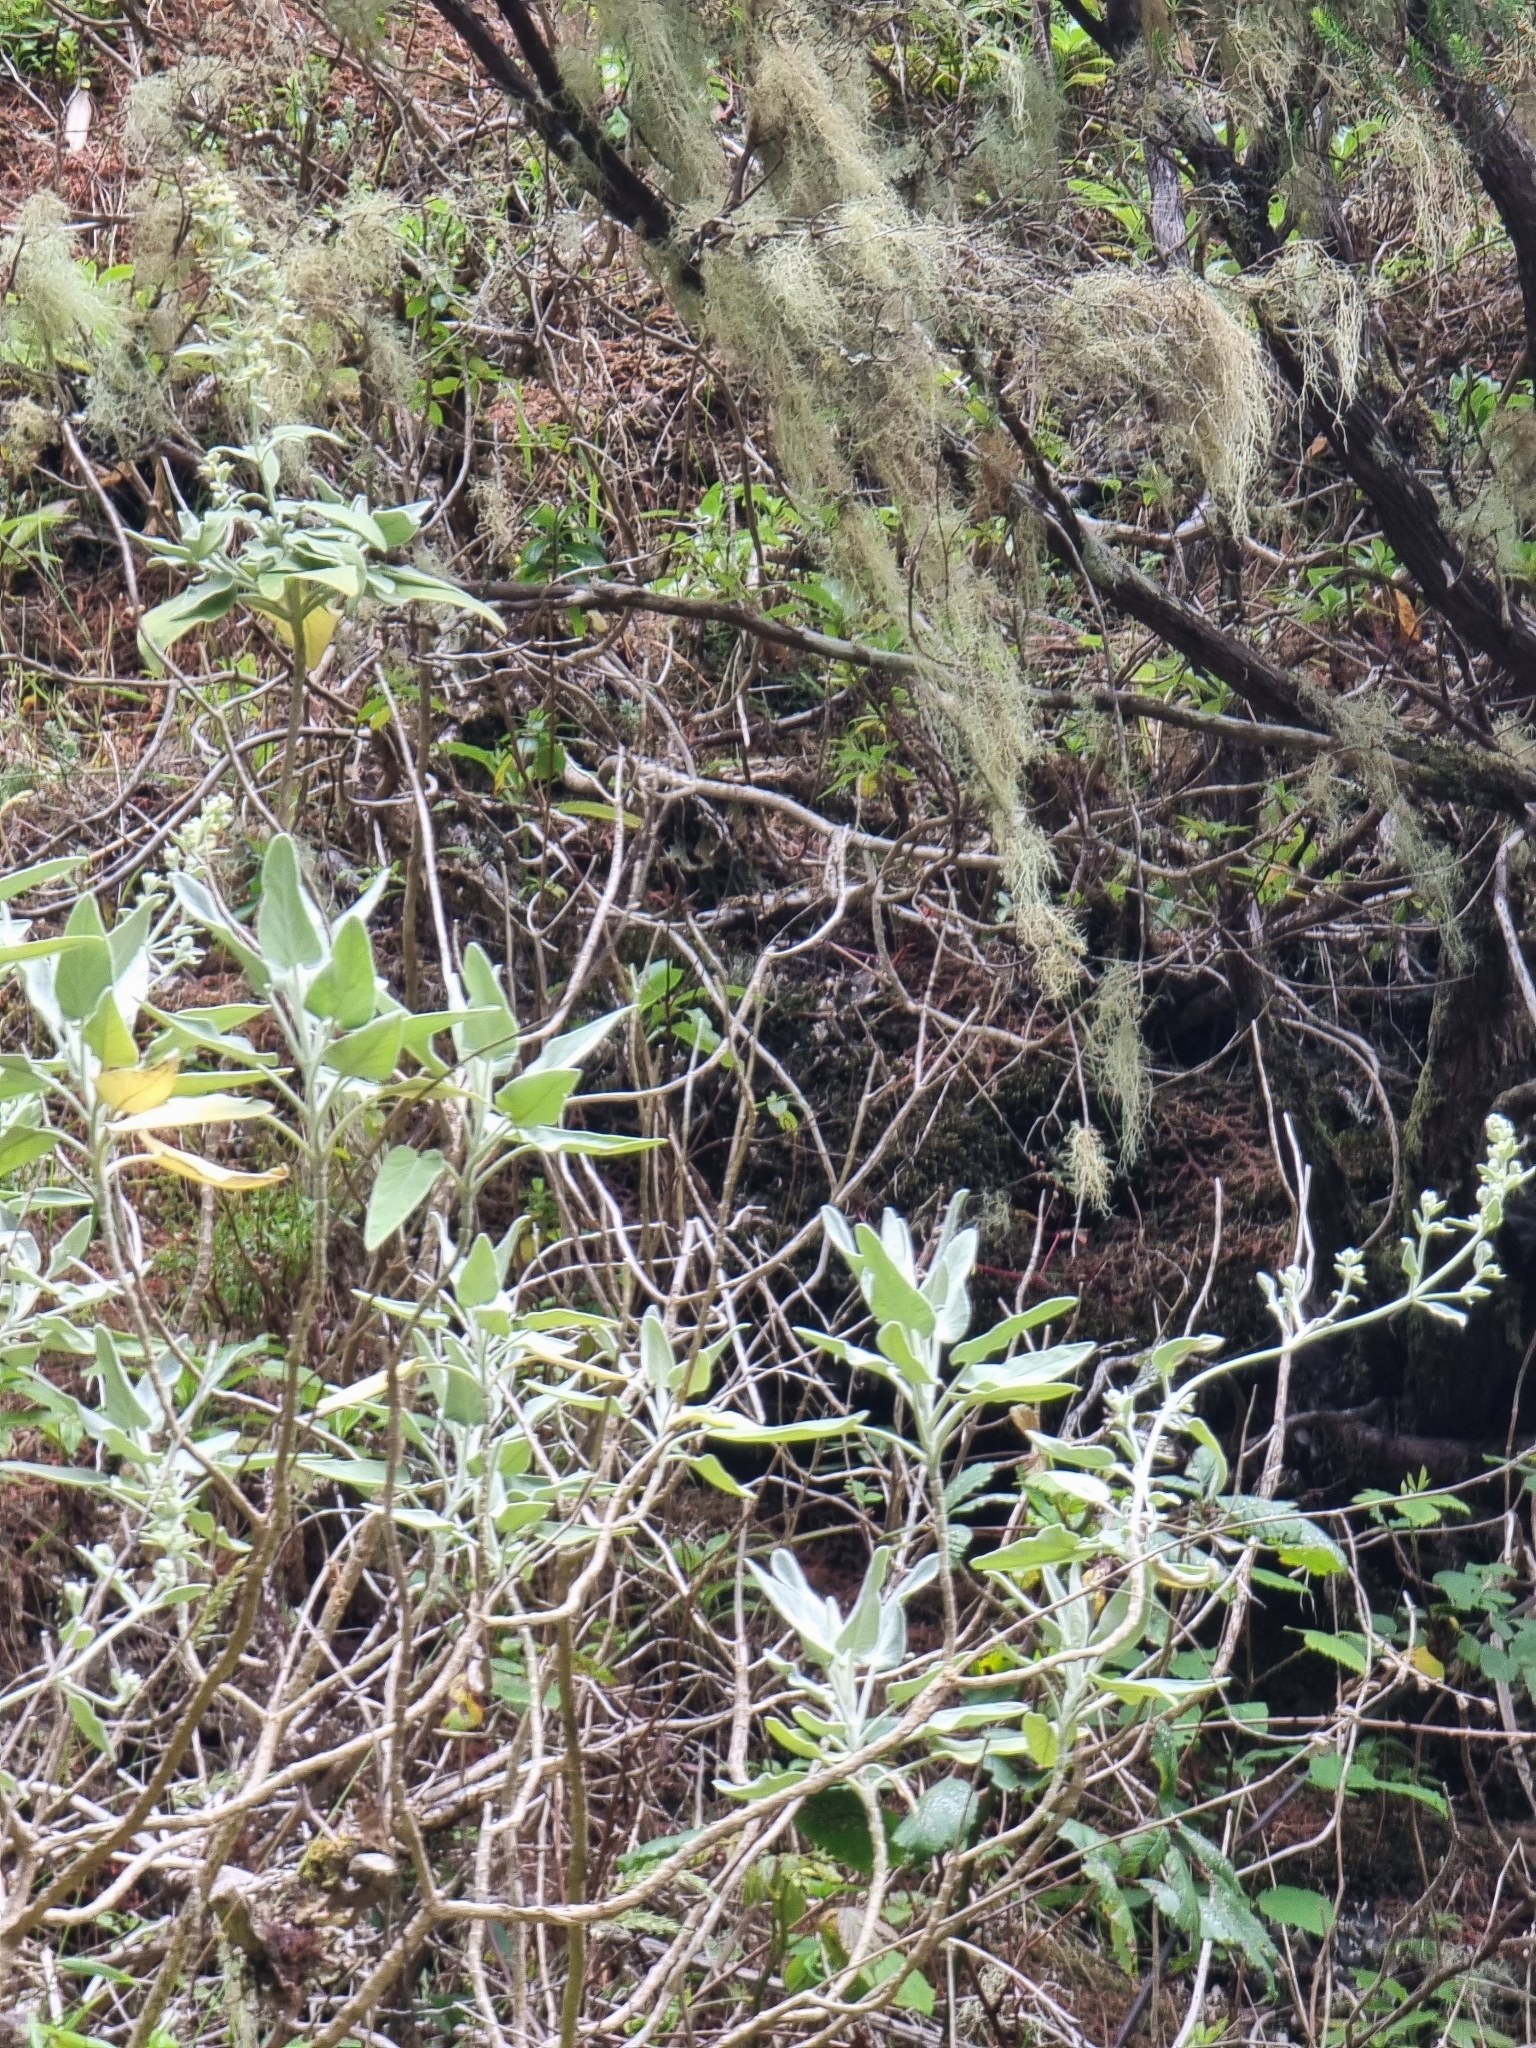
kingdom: Plantae
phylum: Tracheophyta
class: Magnoliopsida
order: Lamiales
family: Lamiaceae
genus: Sideritis
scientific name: Sideritis candicans
